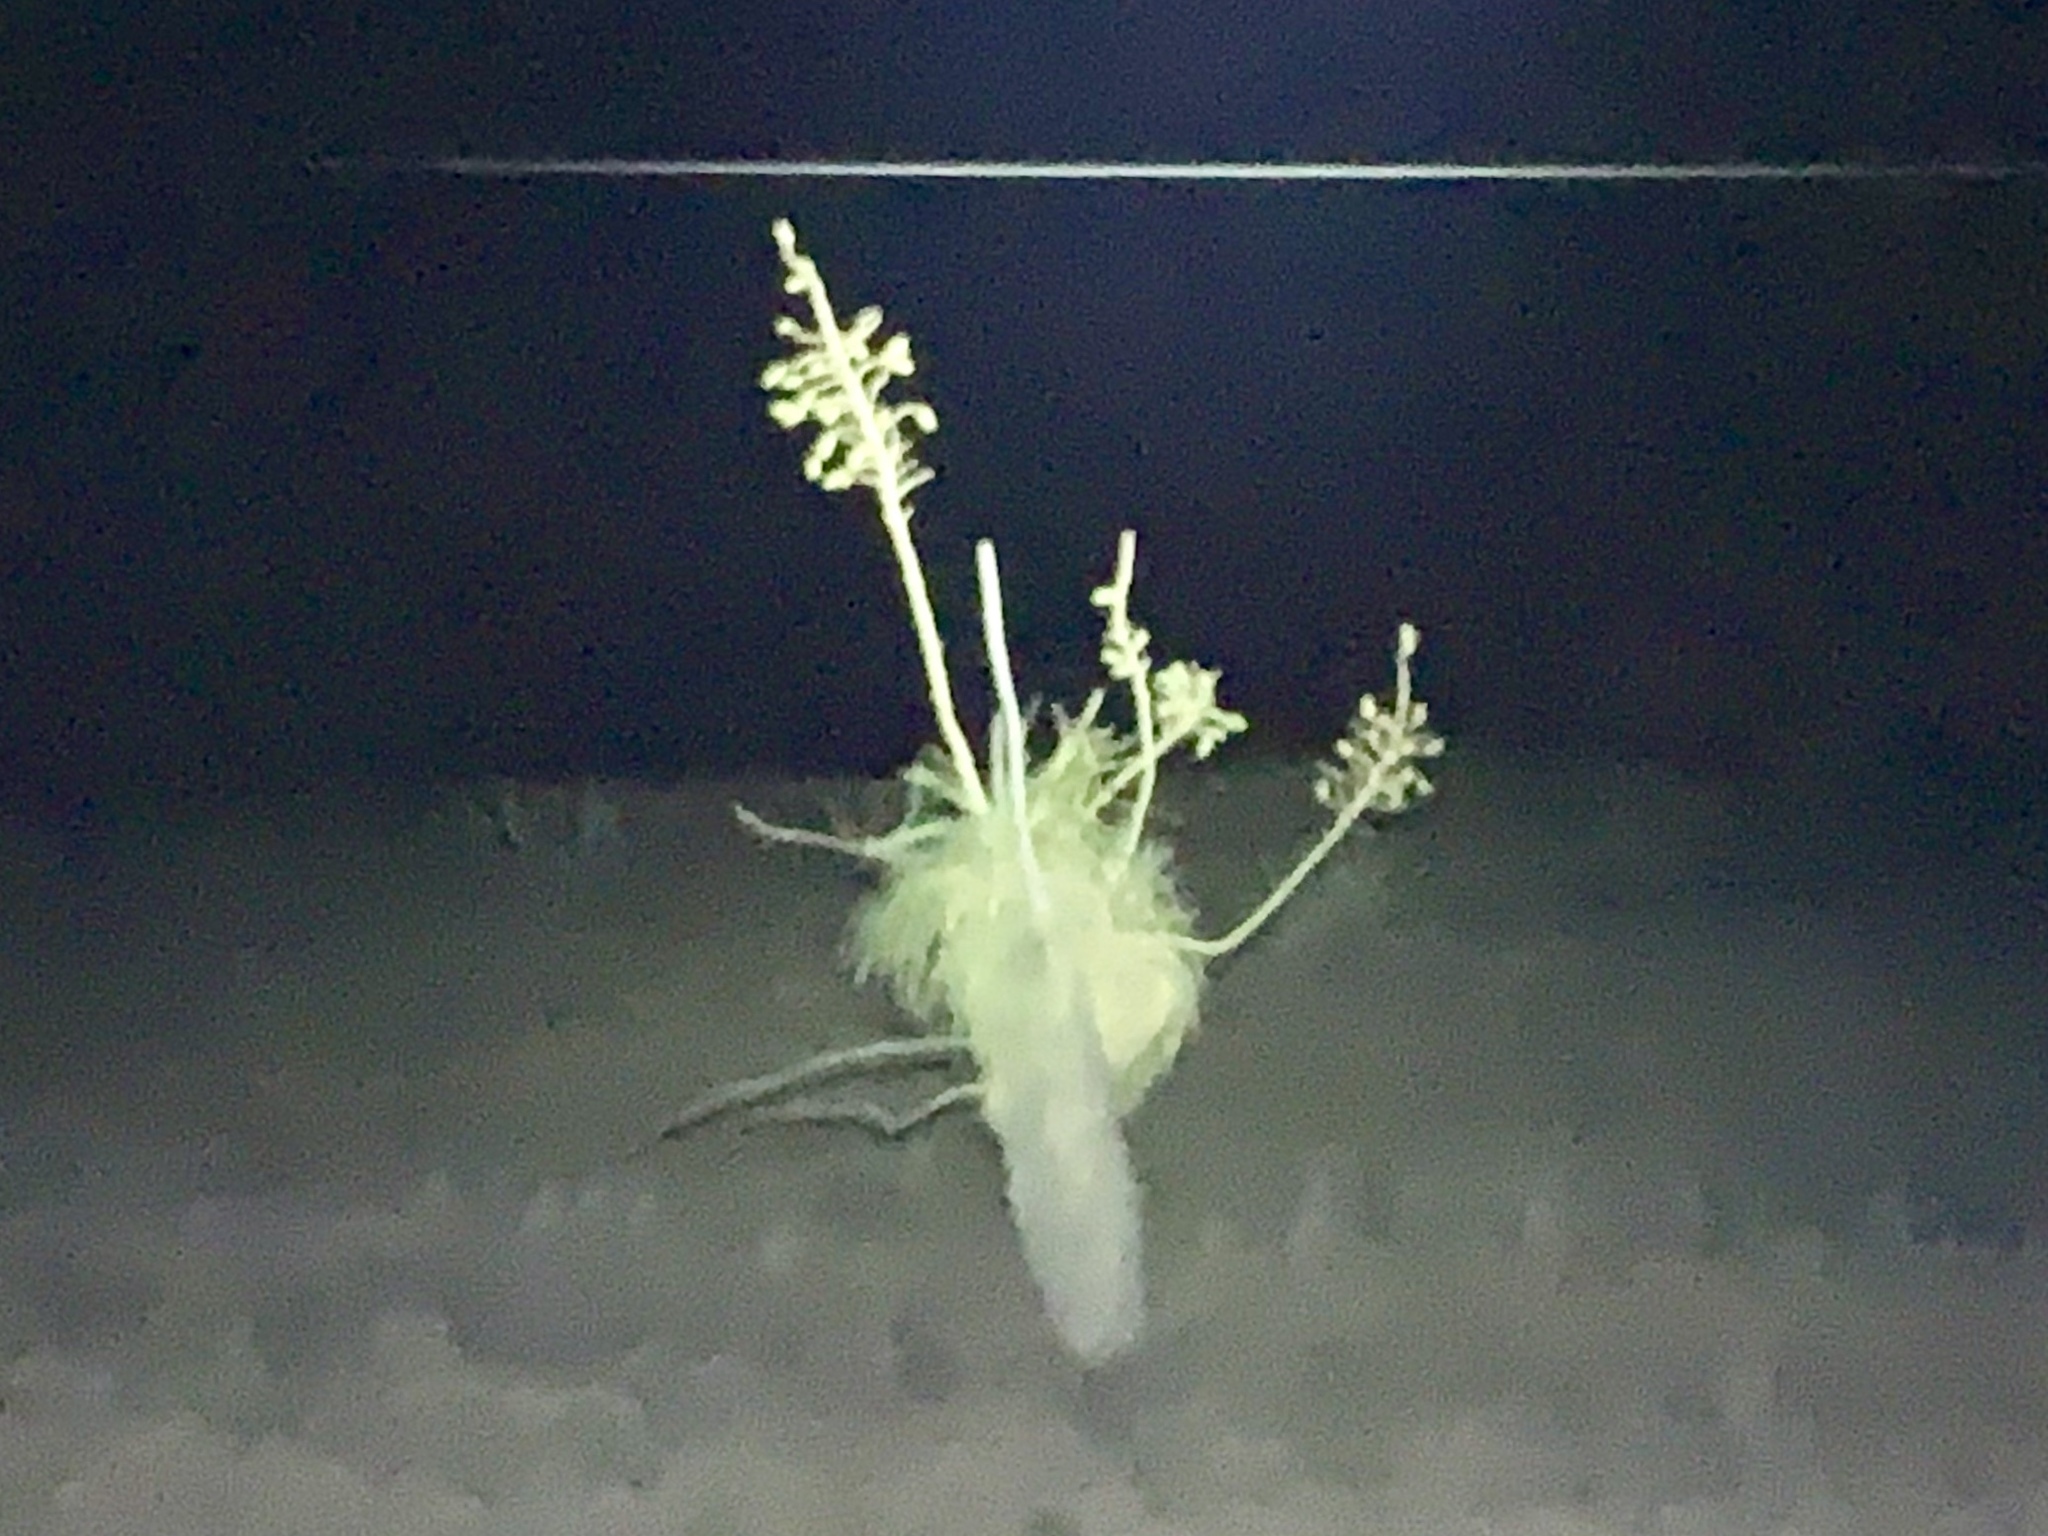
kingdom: Plantae
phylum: Tracheophyta
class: Liliopsida
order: Asparagales
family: Asparagaceae
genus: Yucca
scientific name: Yucca elata
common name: Palmella
